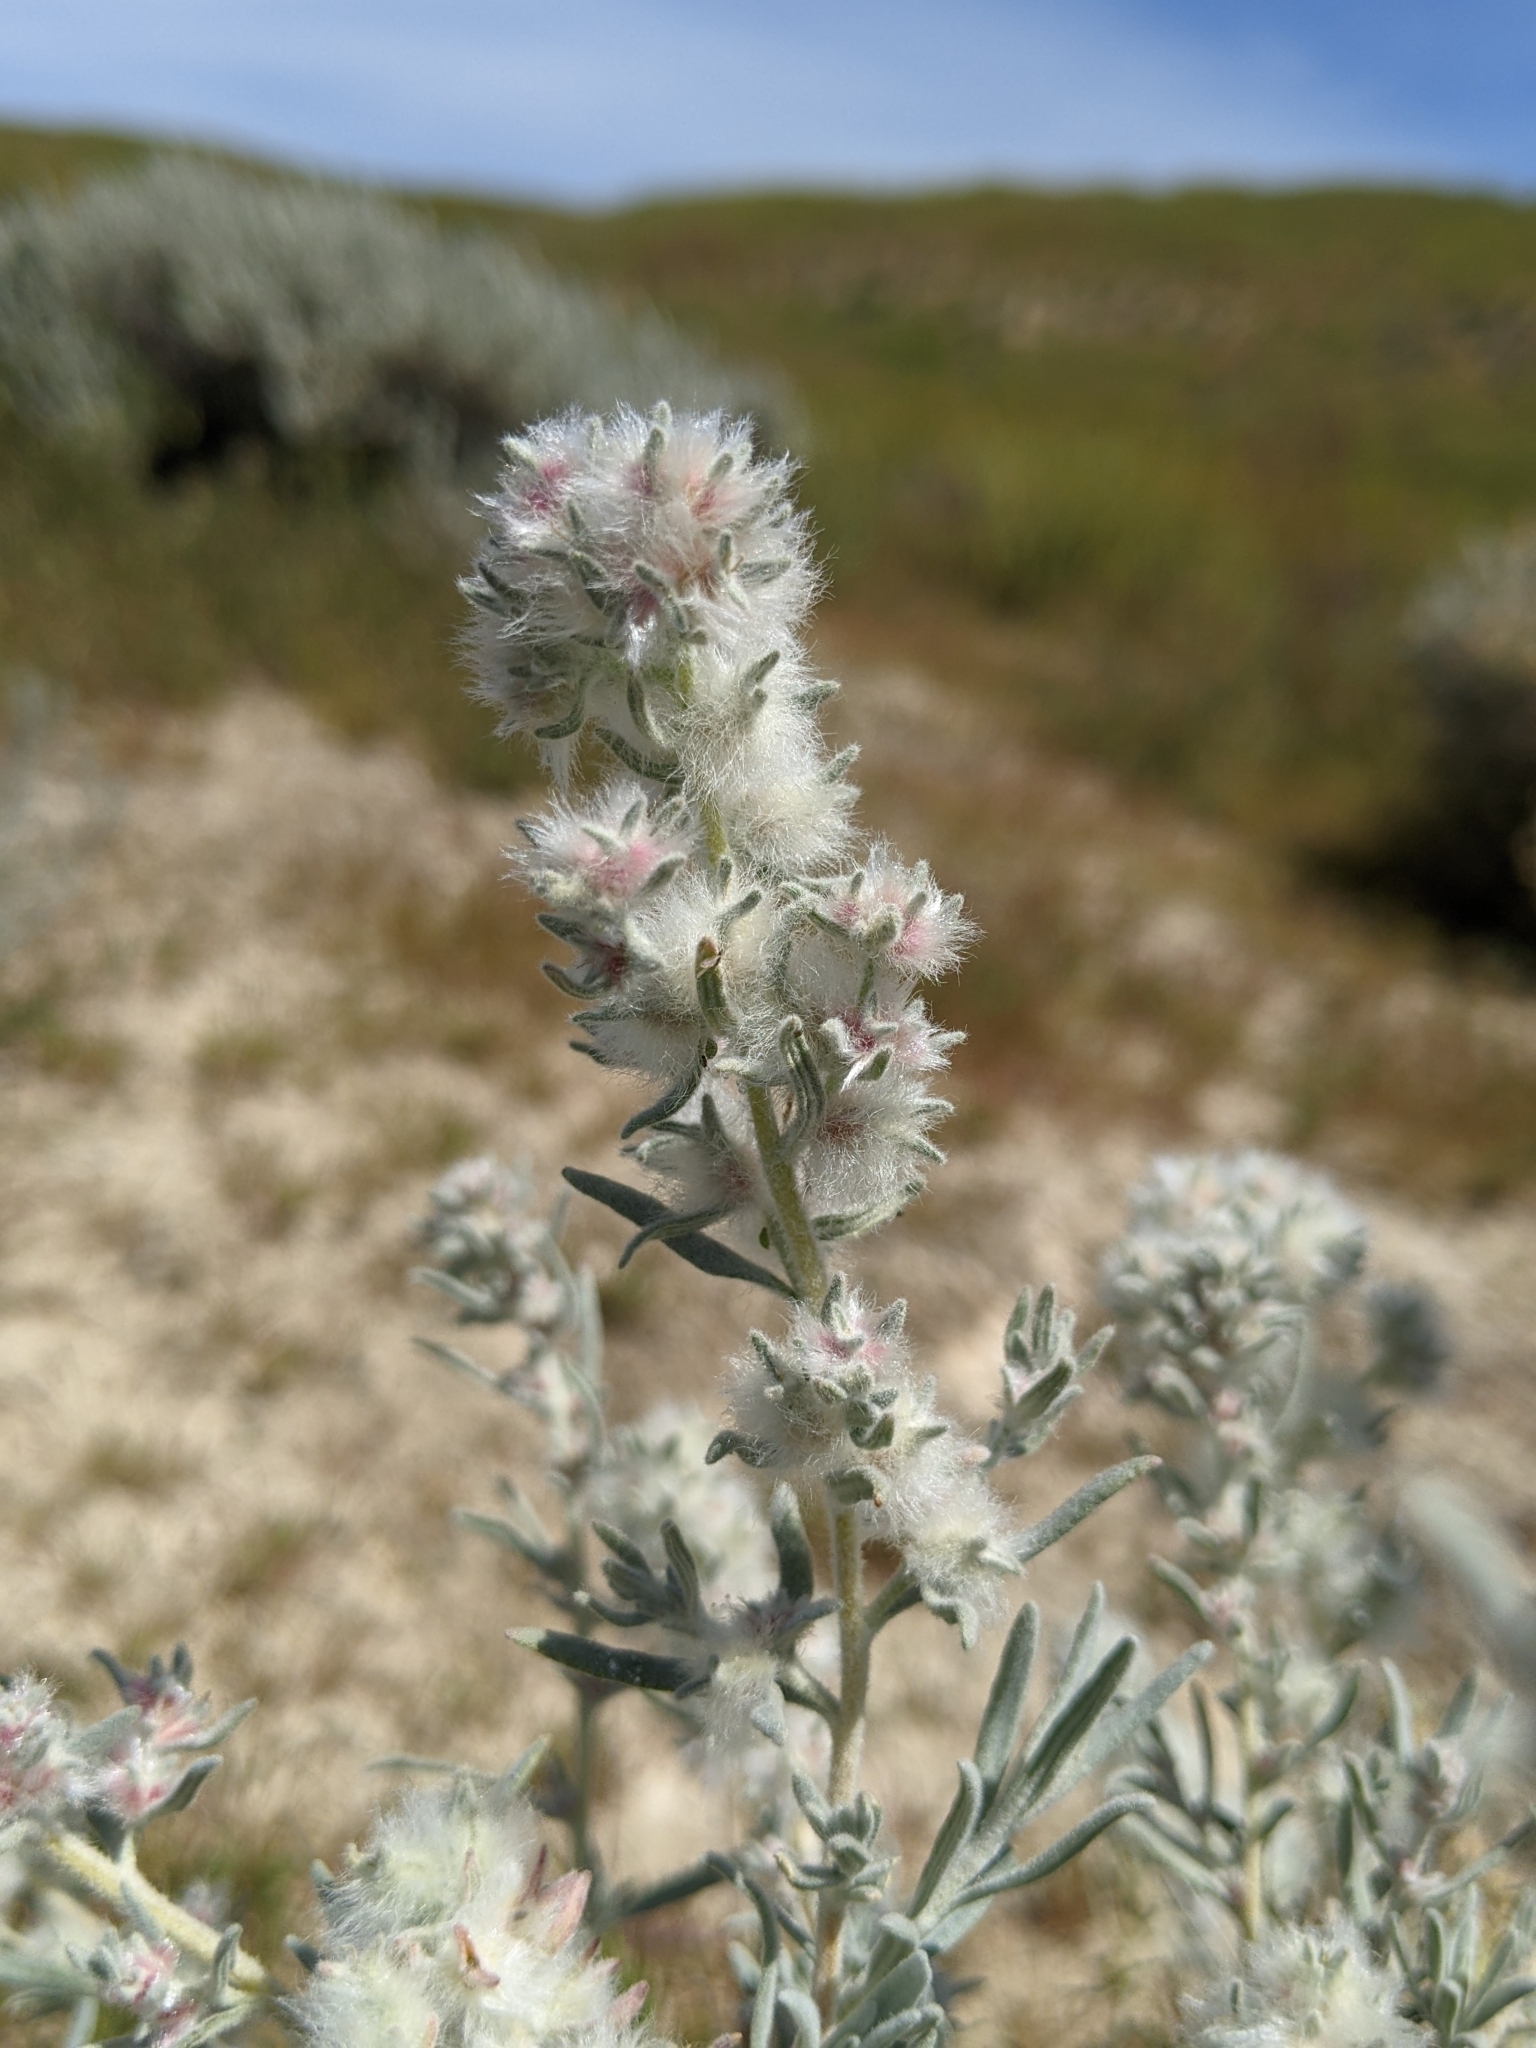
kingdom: Plantae
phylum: Tracheophyta
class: Magnoliopsida
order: Caryophyllales
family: Amaranthaceae
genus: Krascheninnikovia
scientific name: Krascheninnikovia lanata
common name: Winterfat
